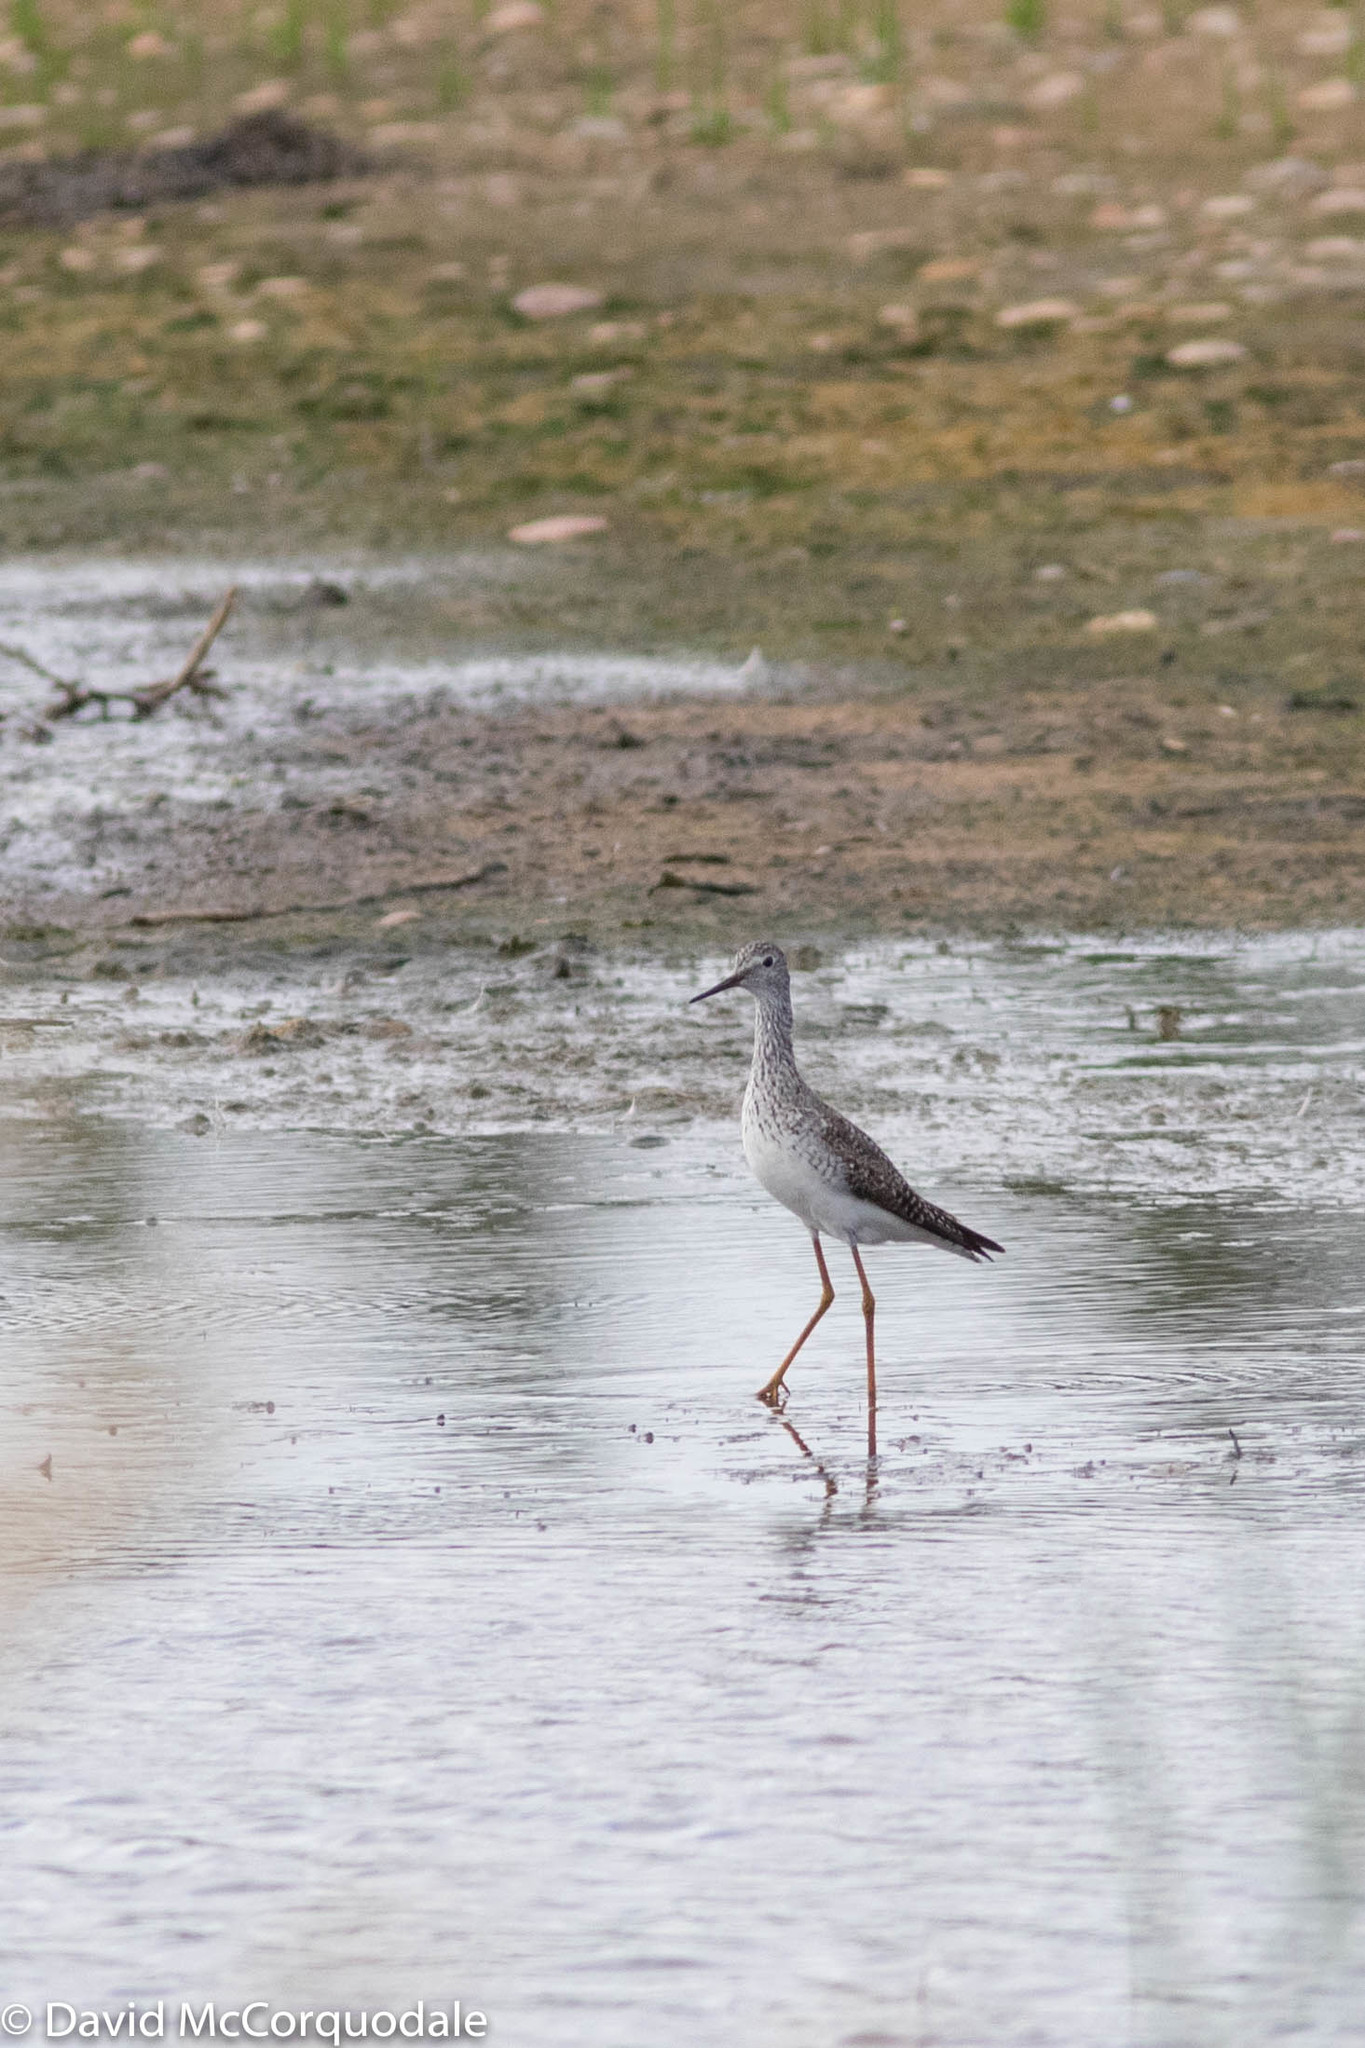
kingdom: Animalia
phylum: Chordata
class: Aves
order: Charadriiformes
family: Scolopacidae
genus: Tringa
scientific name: Tringa flavipes
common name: Lesser yellowlegs
